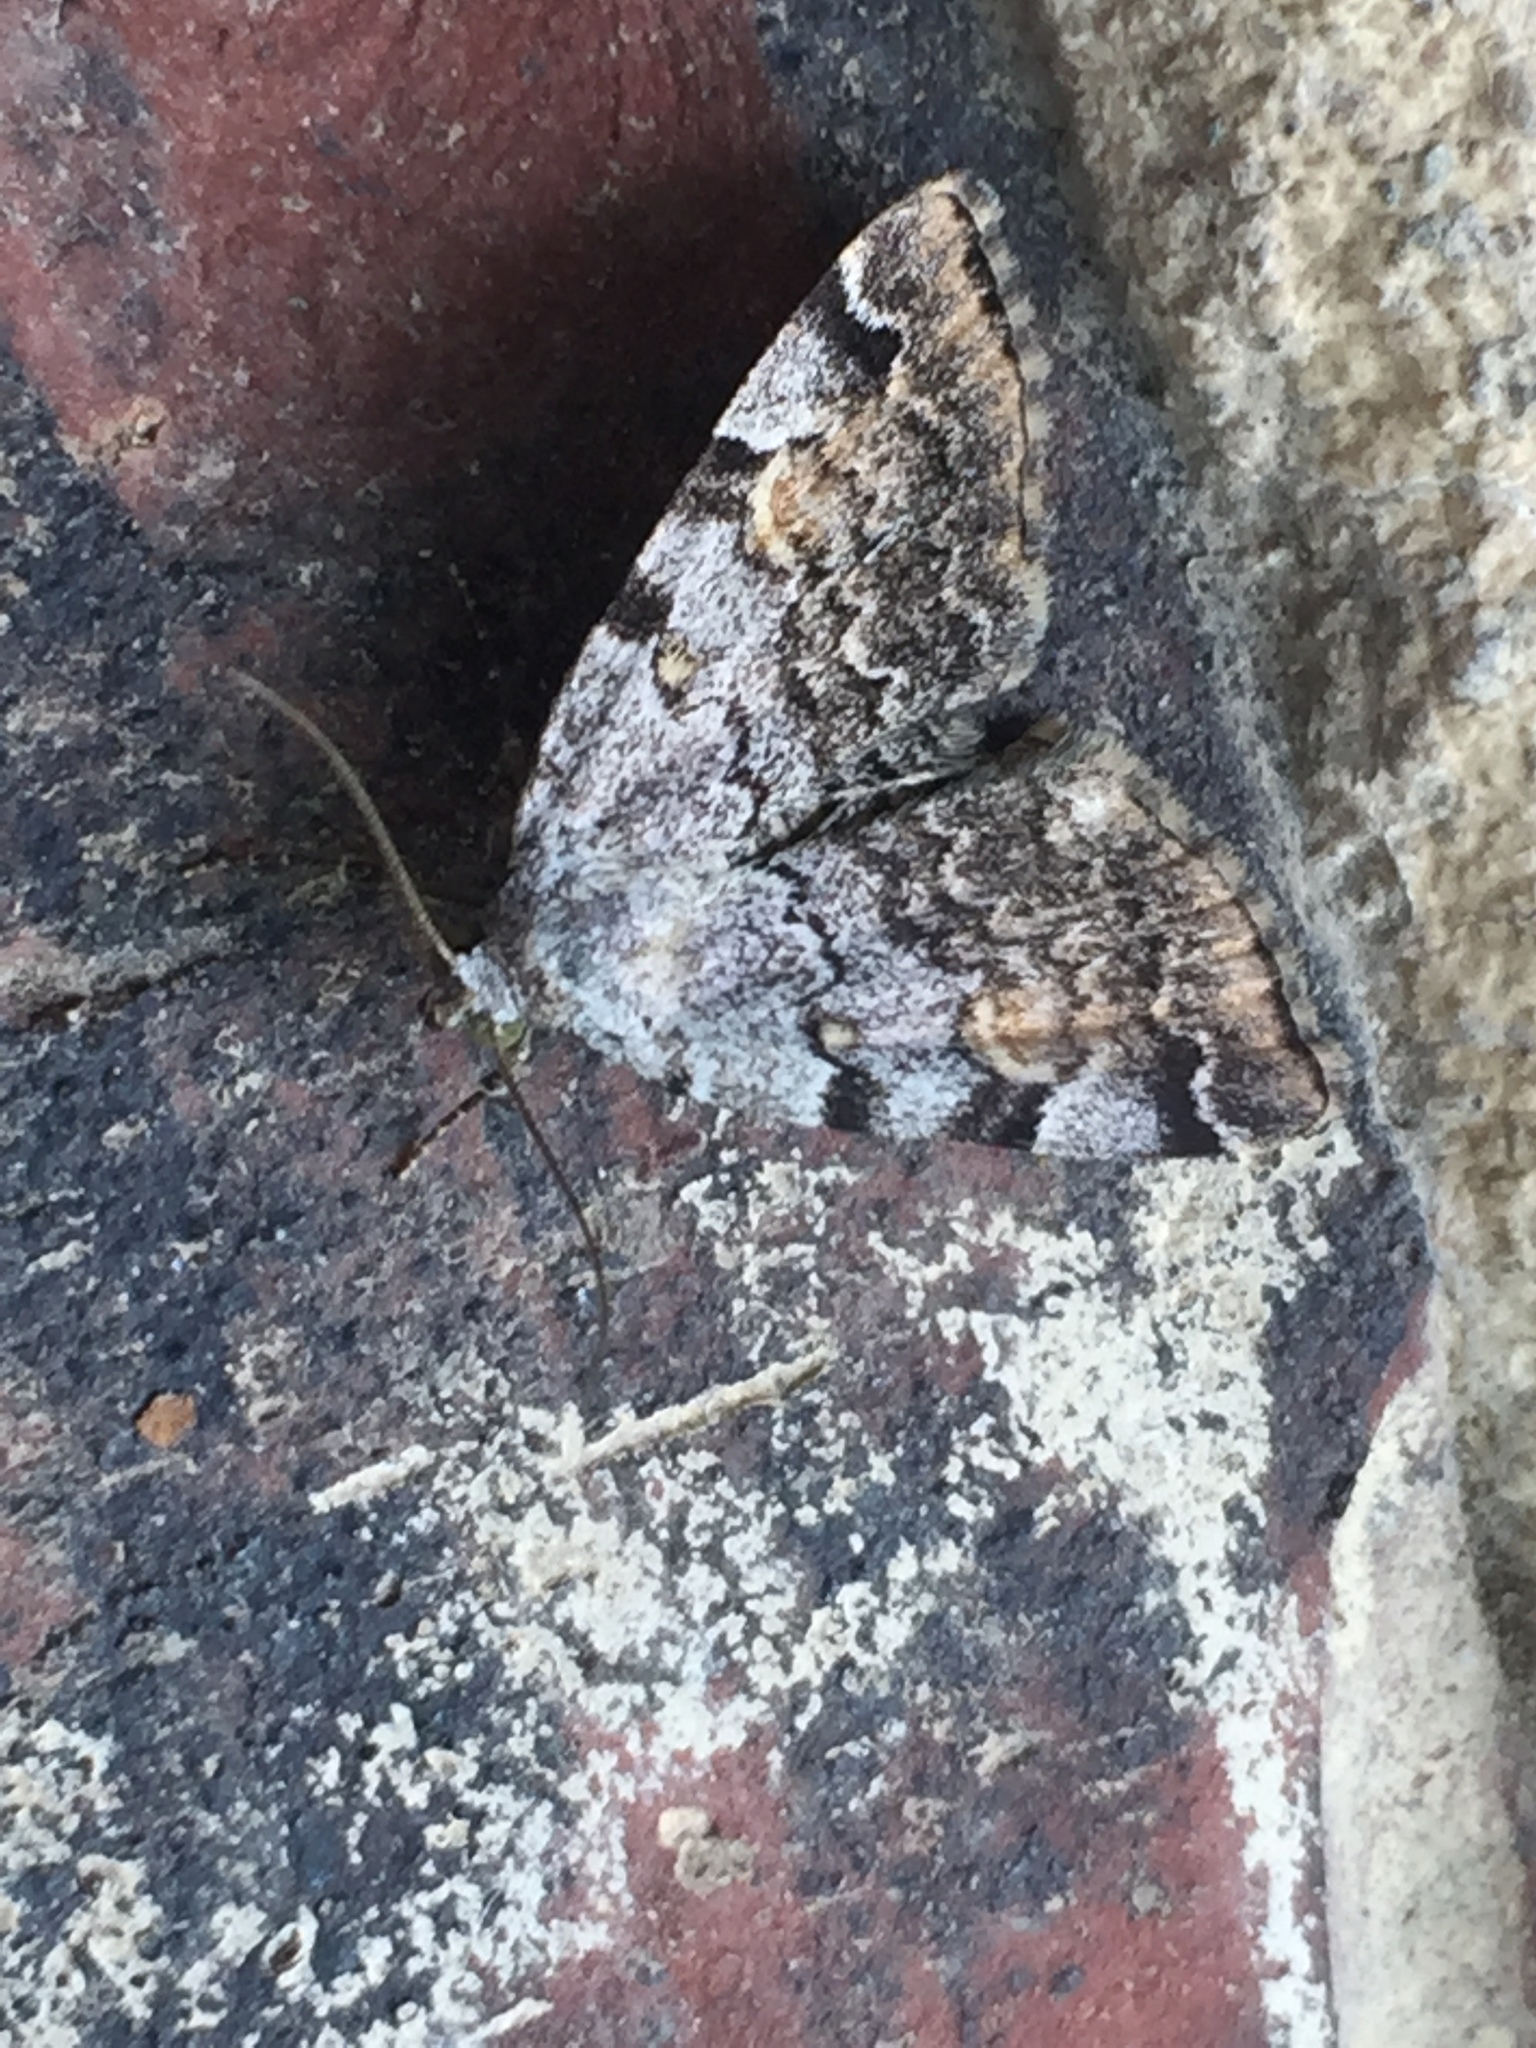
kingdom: Animalia
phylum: Arthropoda
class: Insecta
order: Lepidoptera
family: Erebidae
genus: Idia
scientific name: Idia americalis
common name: American idia moth
